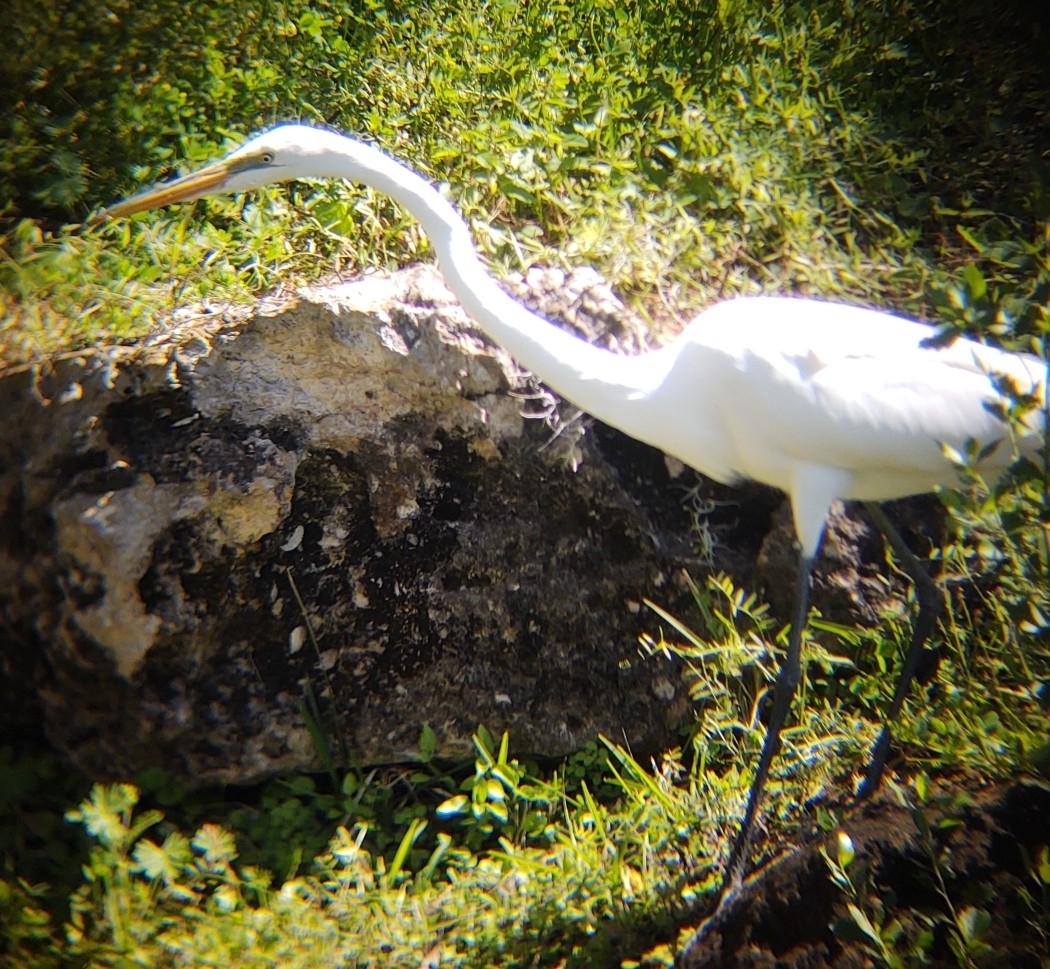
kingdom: Animalia
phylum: Chordata
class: Aves
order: Pelecaniformes
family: Ardeidae
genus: Ardea
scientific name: Ardea alba
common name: Great egret
